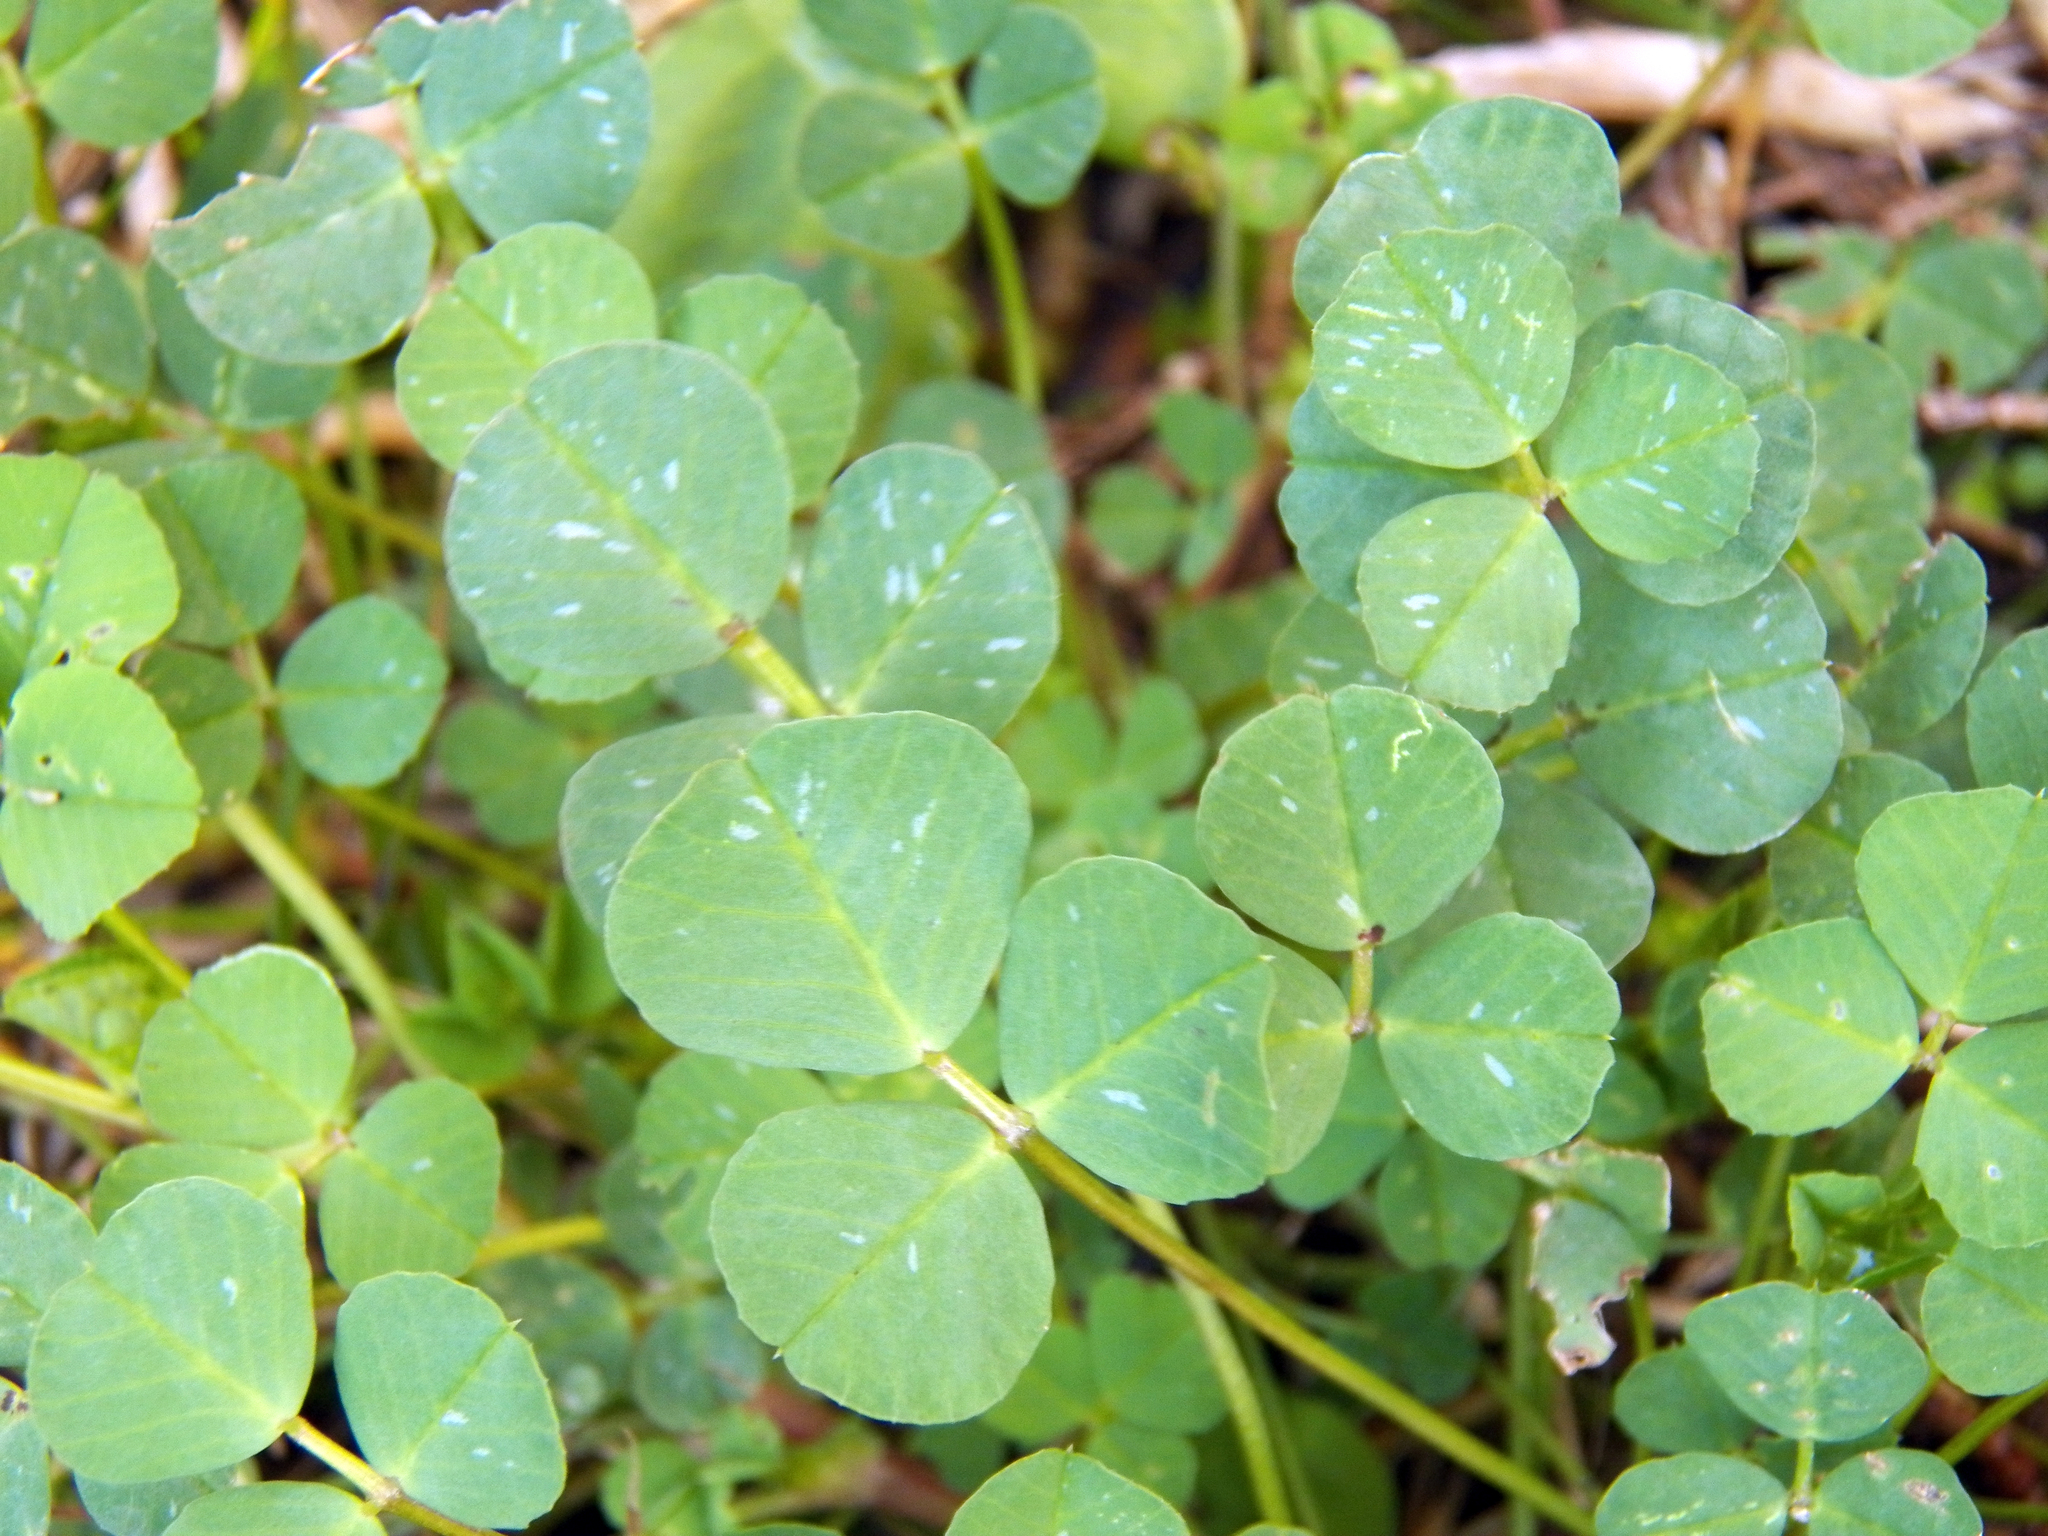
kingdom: Plantae
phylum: Tracheophyta
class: Magnoliopsida
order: Fabales
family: Fabaceae
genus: Medicago
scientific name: Medicago polymorpha
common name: Burclover
